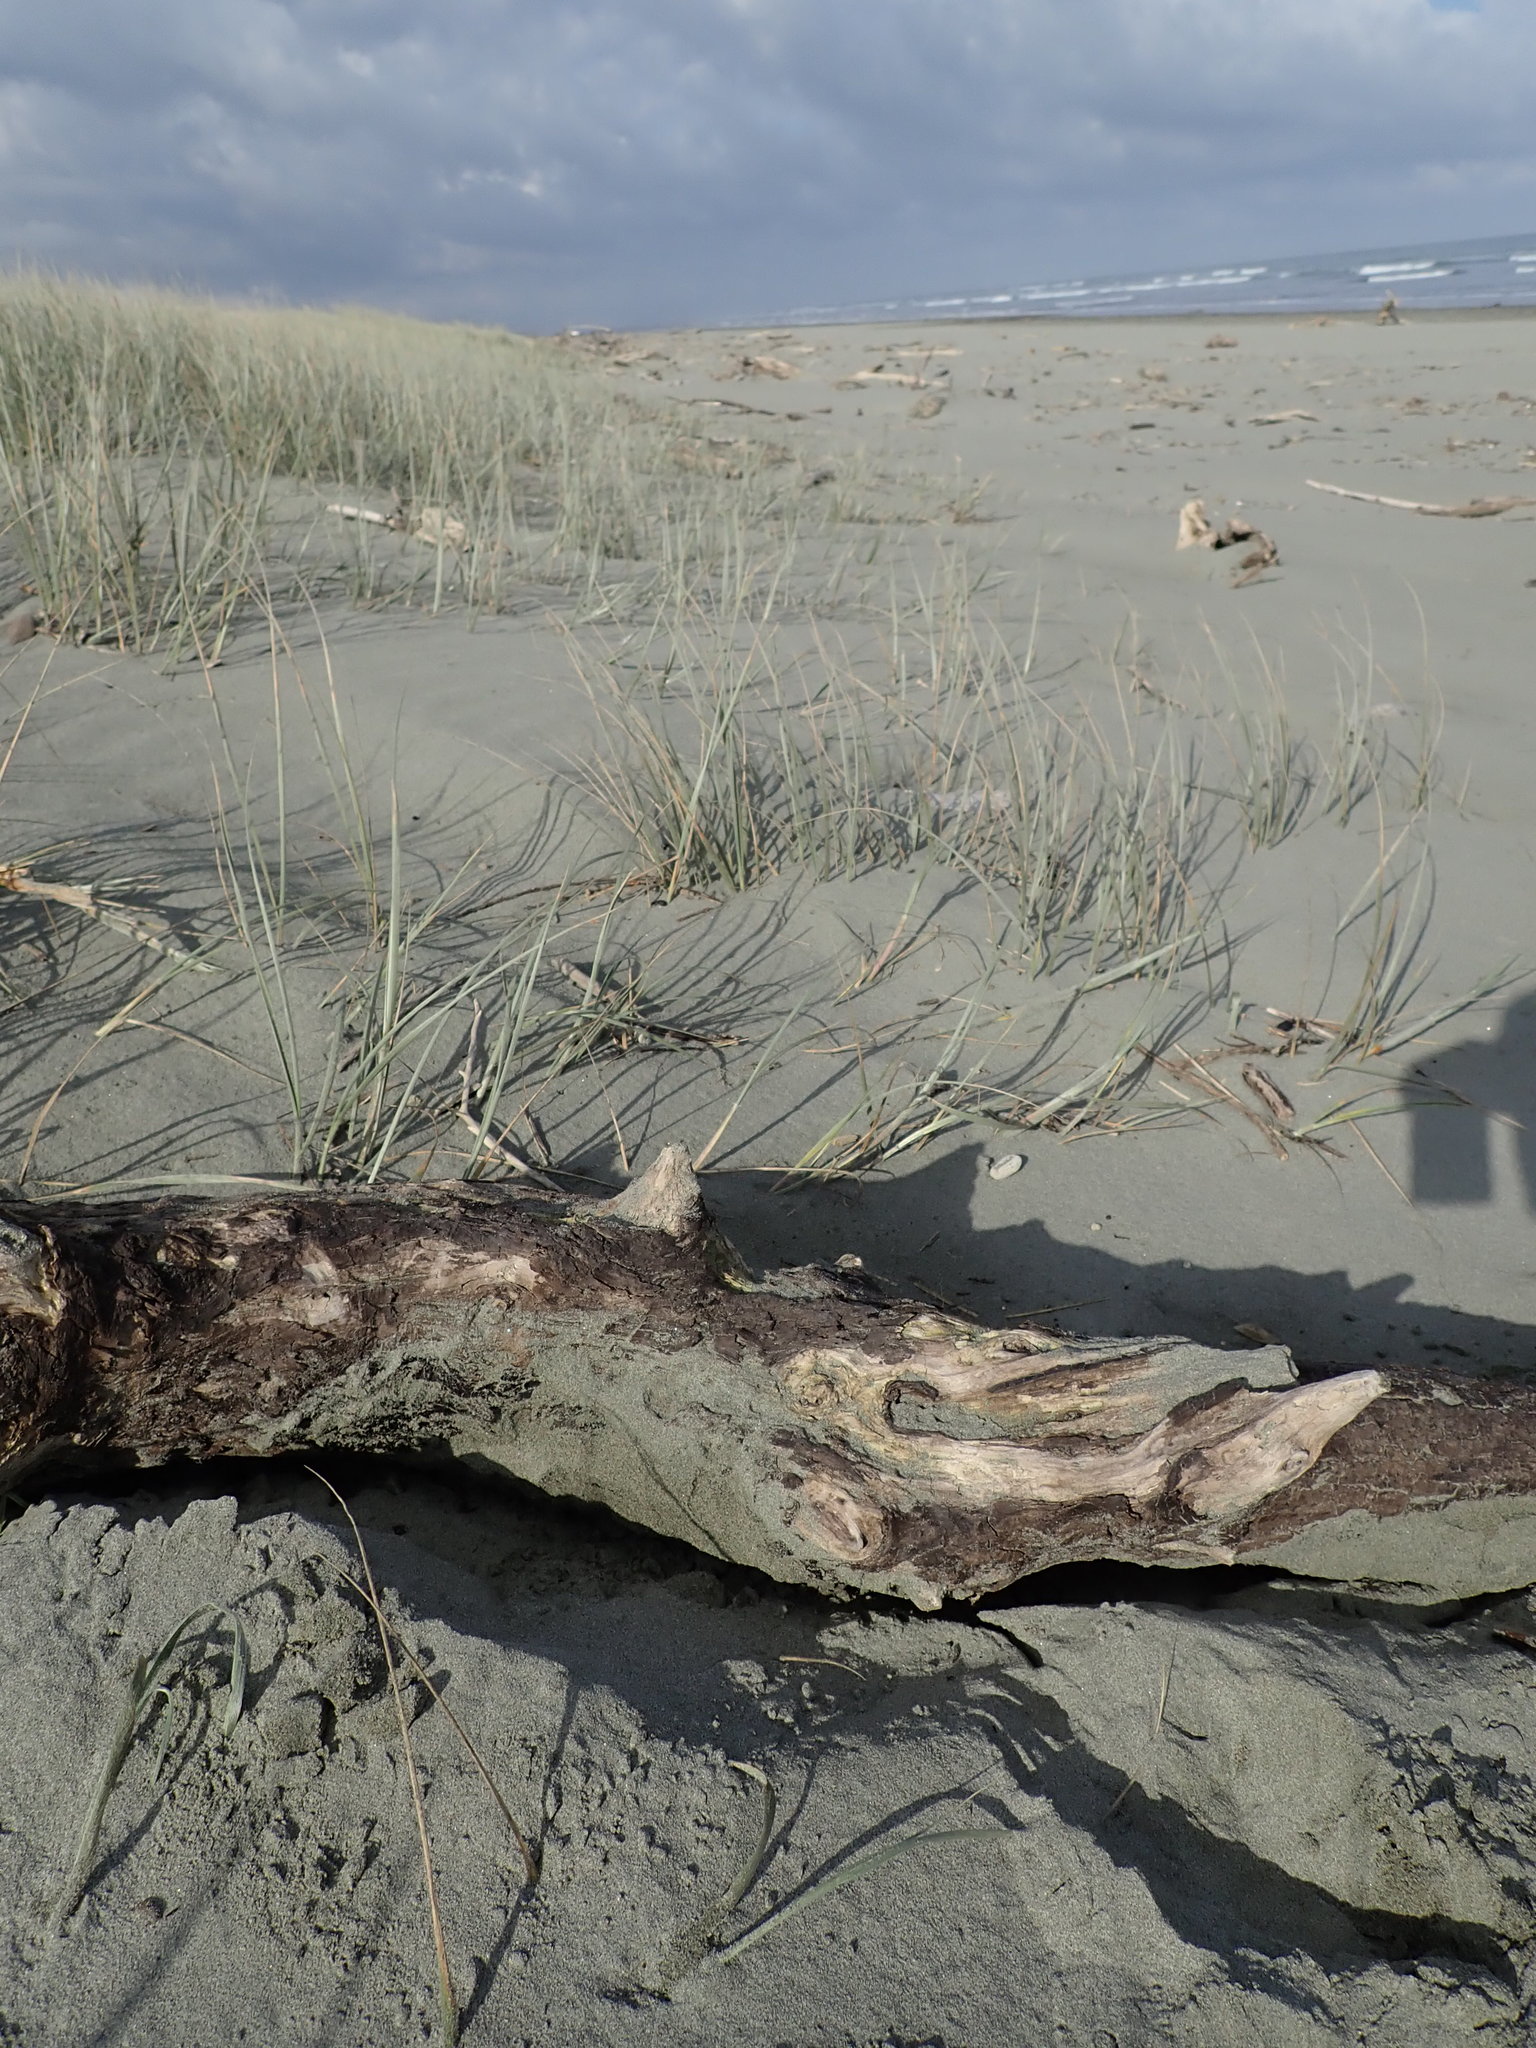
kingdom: Animalia
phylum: Arthropoda
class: Malacostraca
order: Isopoda
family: Porcellionidae
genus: Porcellio
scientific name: Porcellio scaber
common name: Common rough woodlouse
